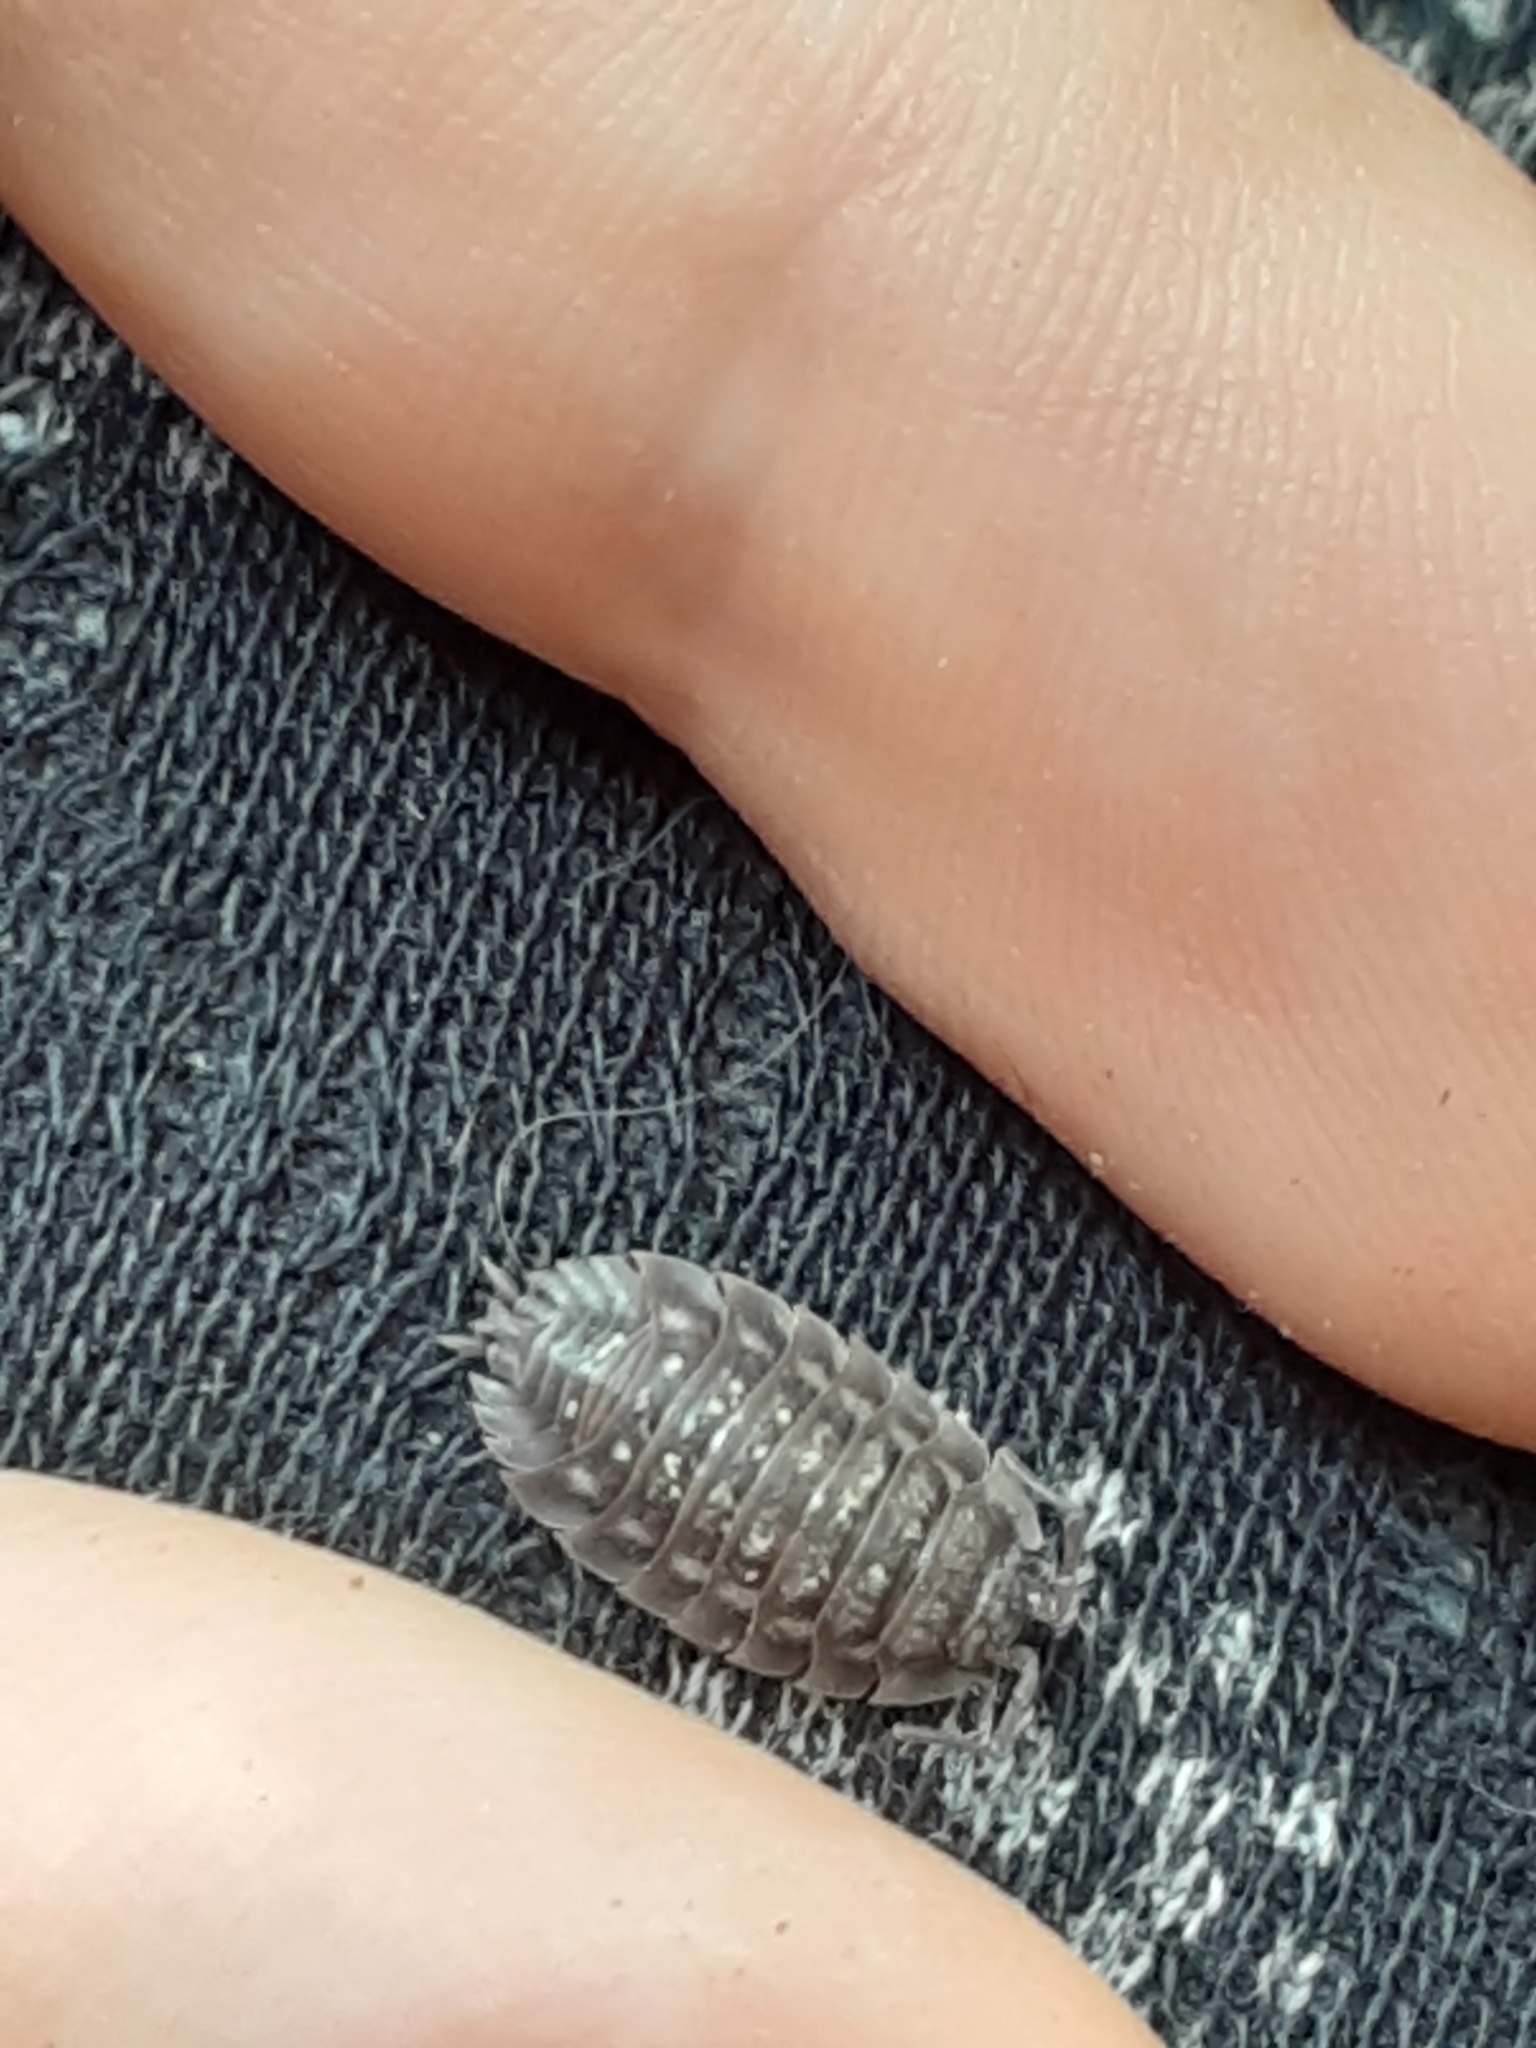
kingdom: Animalia
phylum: Arthropoda
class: Malacostraca
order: Isopoda
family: Oniscidae
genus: Oniscus
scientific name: Oniscus asellus
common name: Common shiny woodlouse
